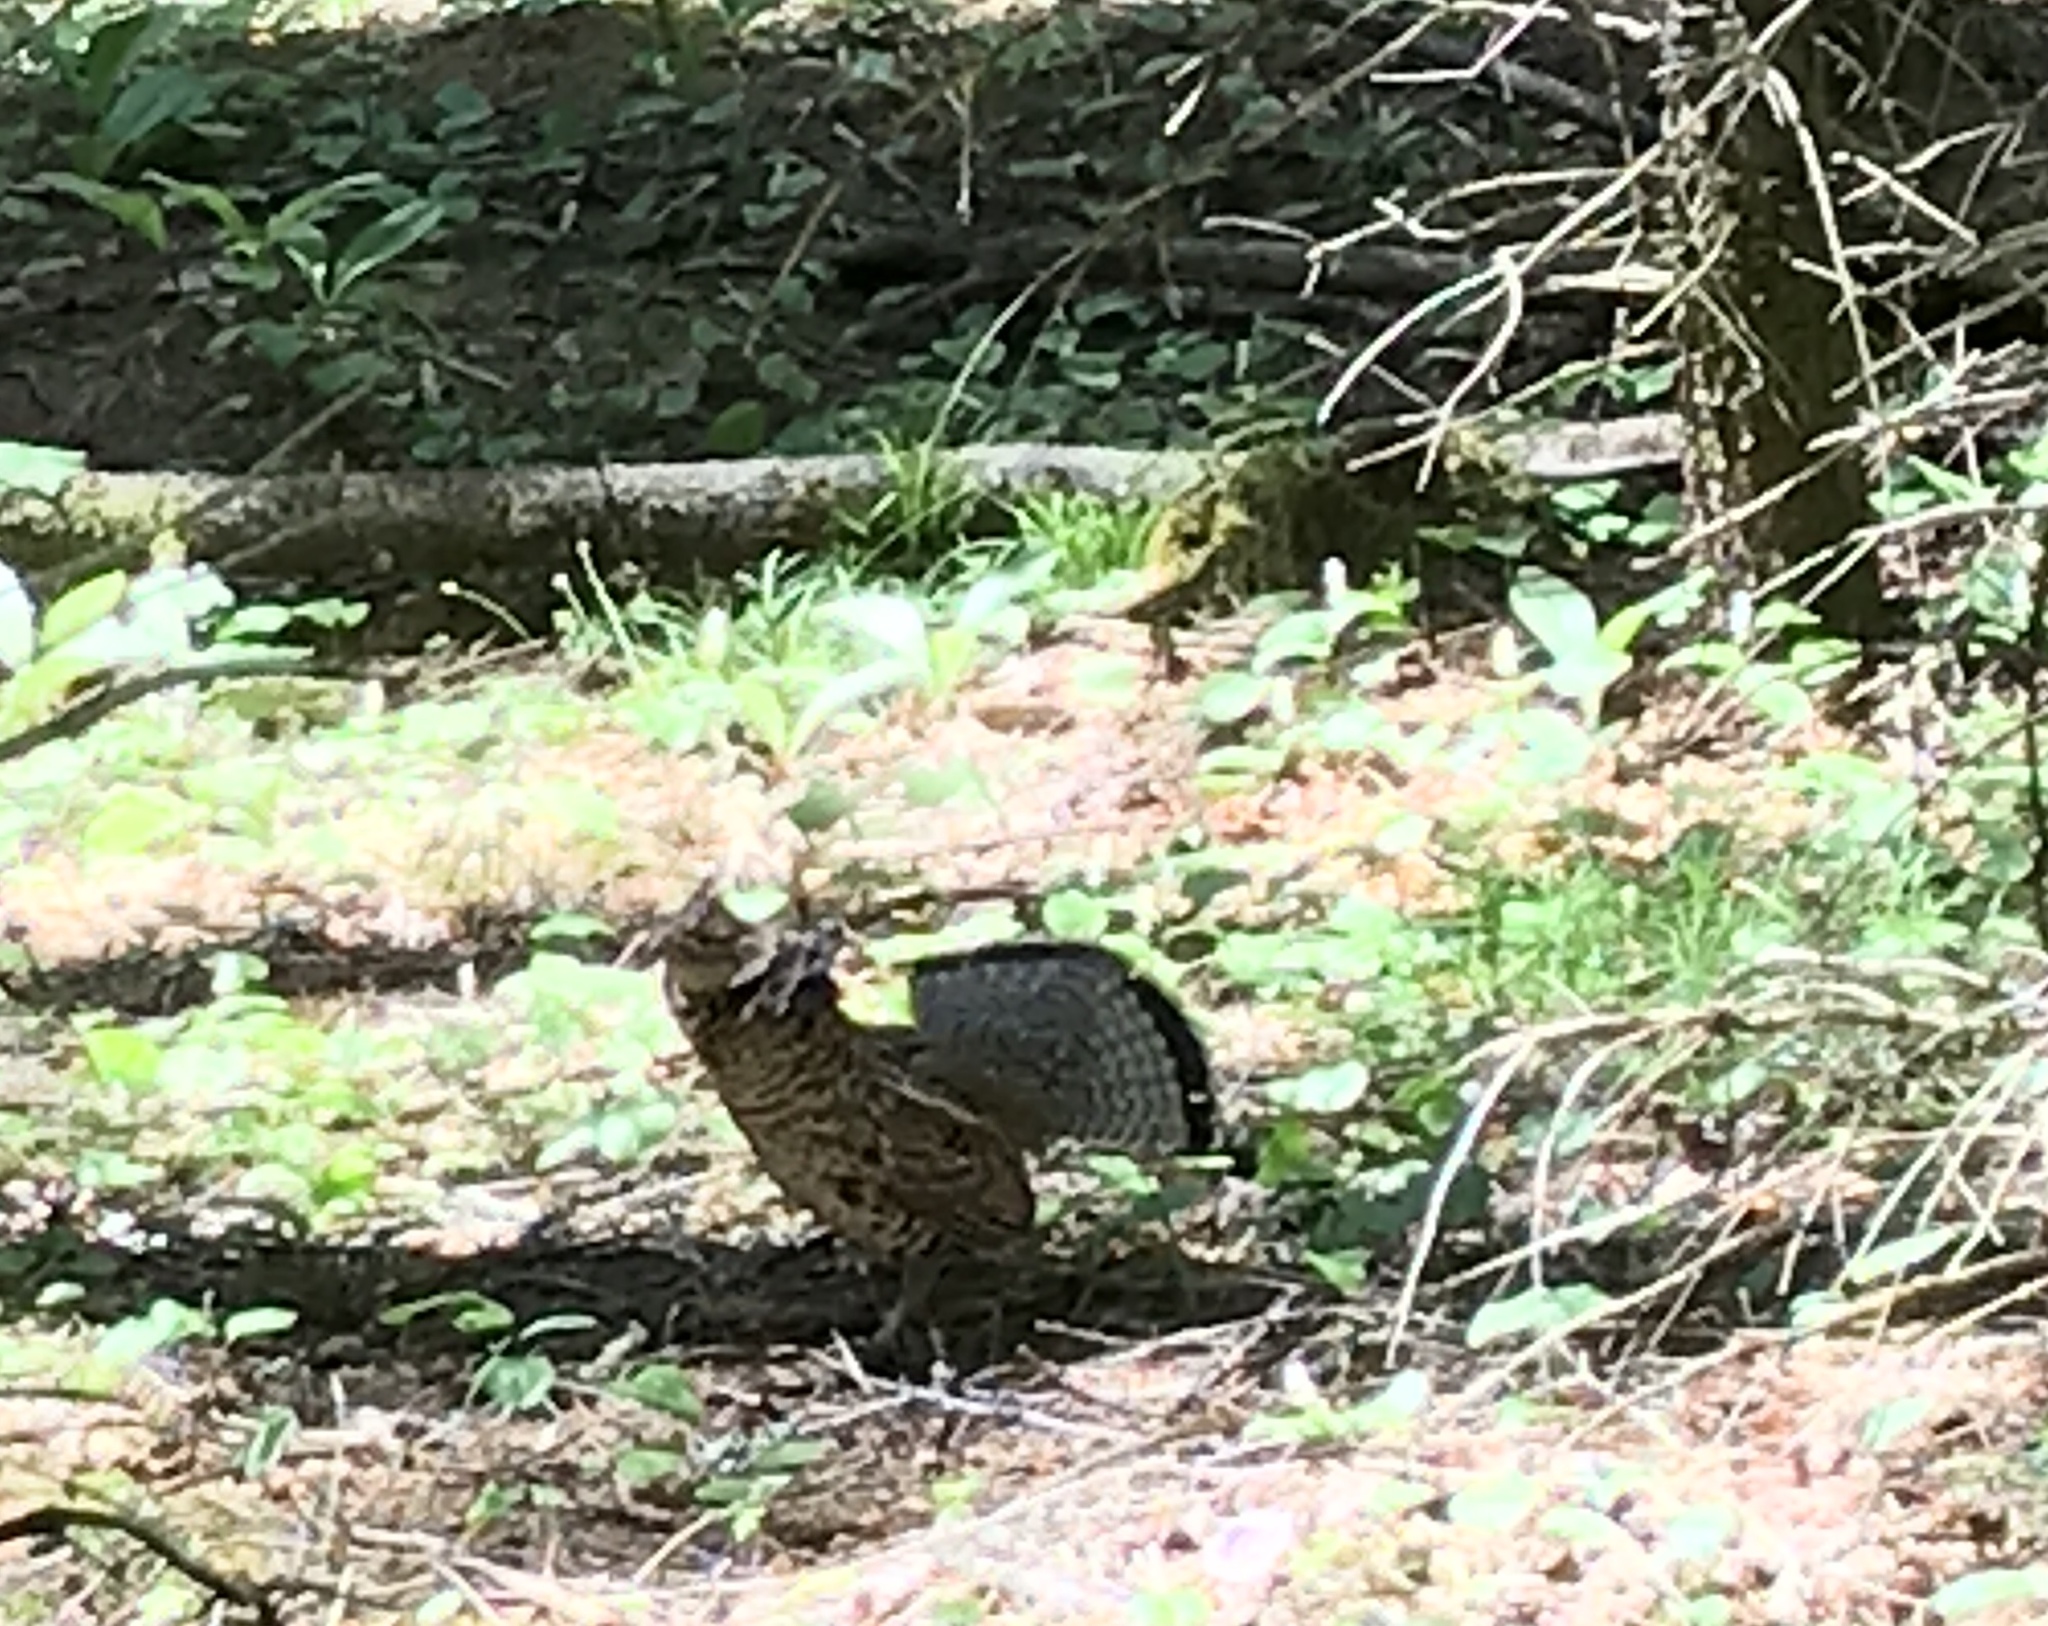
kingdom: Animalia
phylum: Chordata
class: Aves
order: Galliformes
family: Phasianidae
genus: Bonasa
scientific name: Bonasa umbellus
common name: Ruffed grouse
